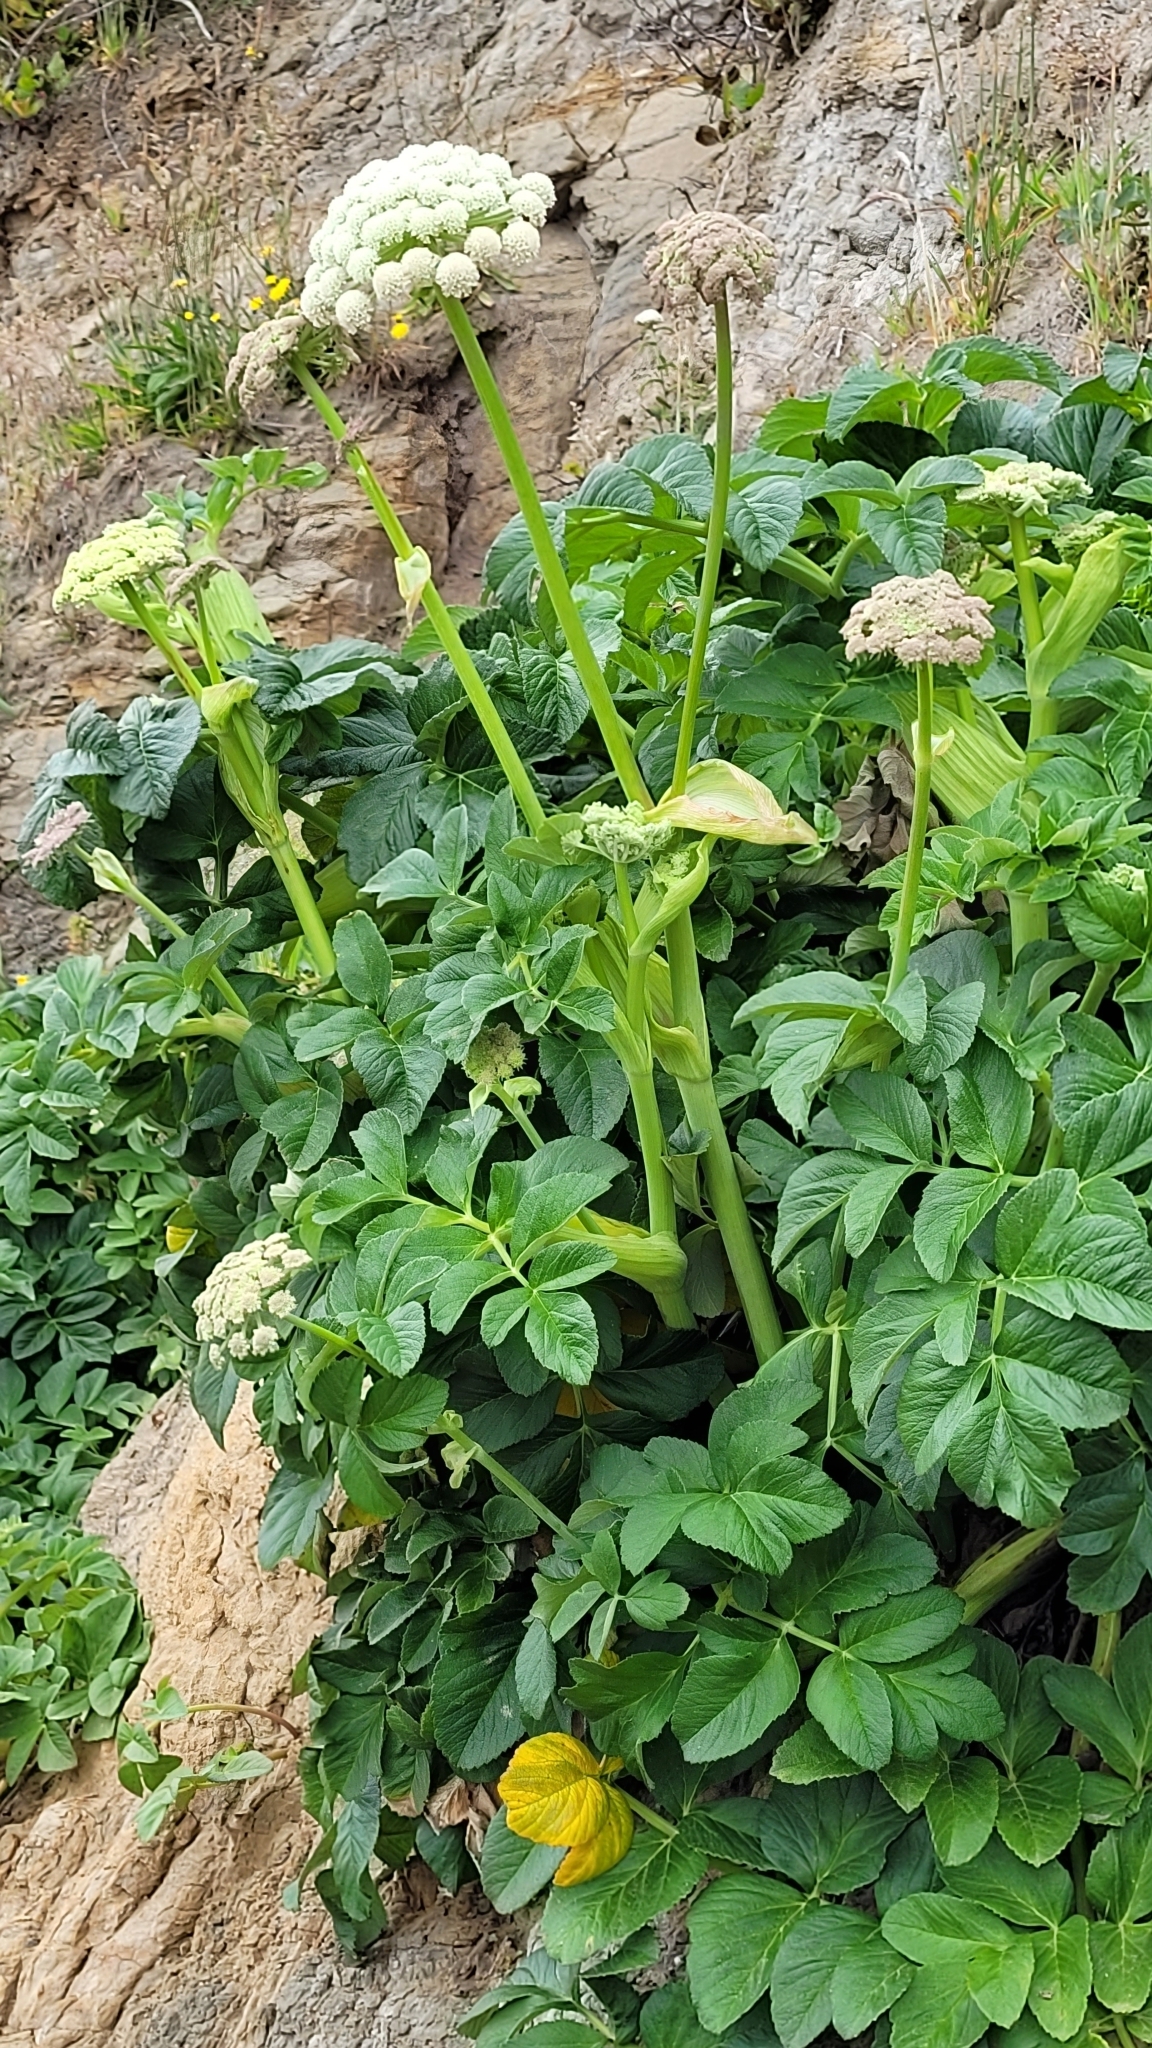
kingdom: Plantae
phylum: Tracheophyta
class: Magnoliopsida
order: Apiales
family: Apiaceae
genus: Angelica
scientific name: Angelica hendersonii
